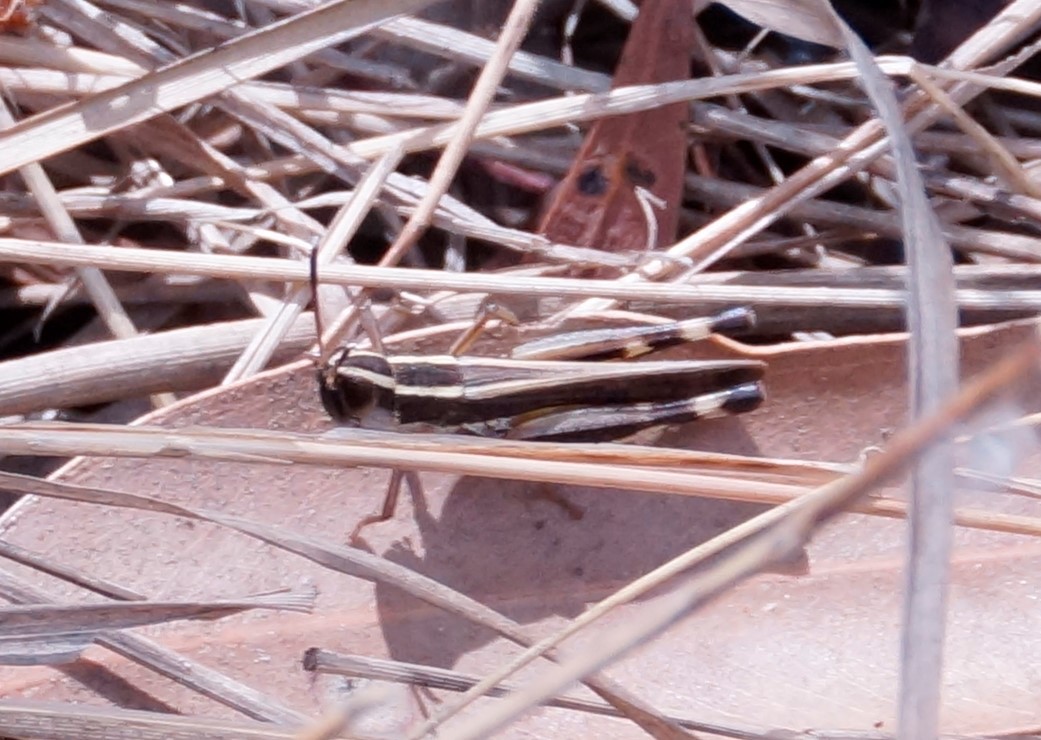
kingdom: Animalia
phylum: Arthropoda
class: Insecta
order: Orthoptera
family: Acrididae
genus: Macrotona
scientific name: Macrotona australis
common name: Common macrotona
